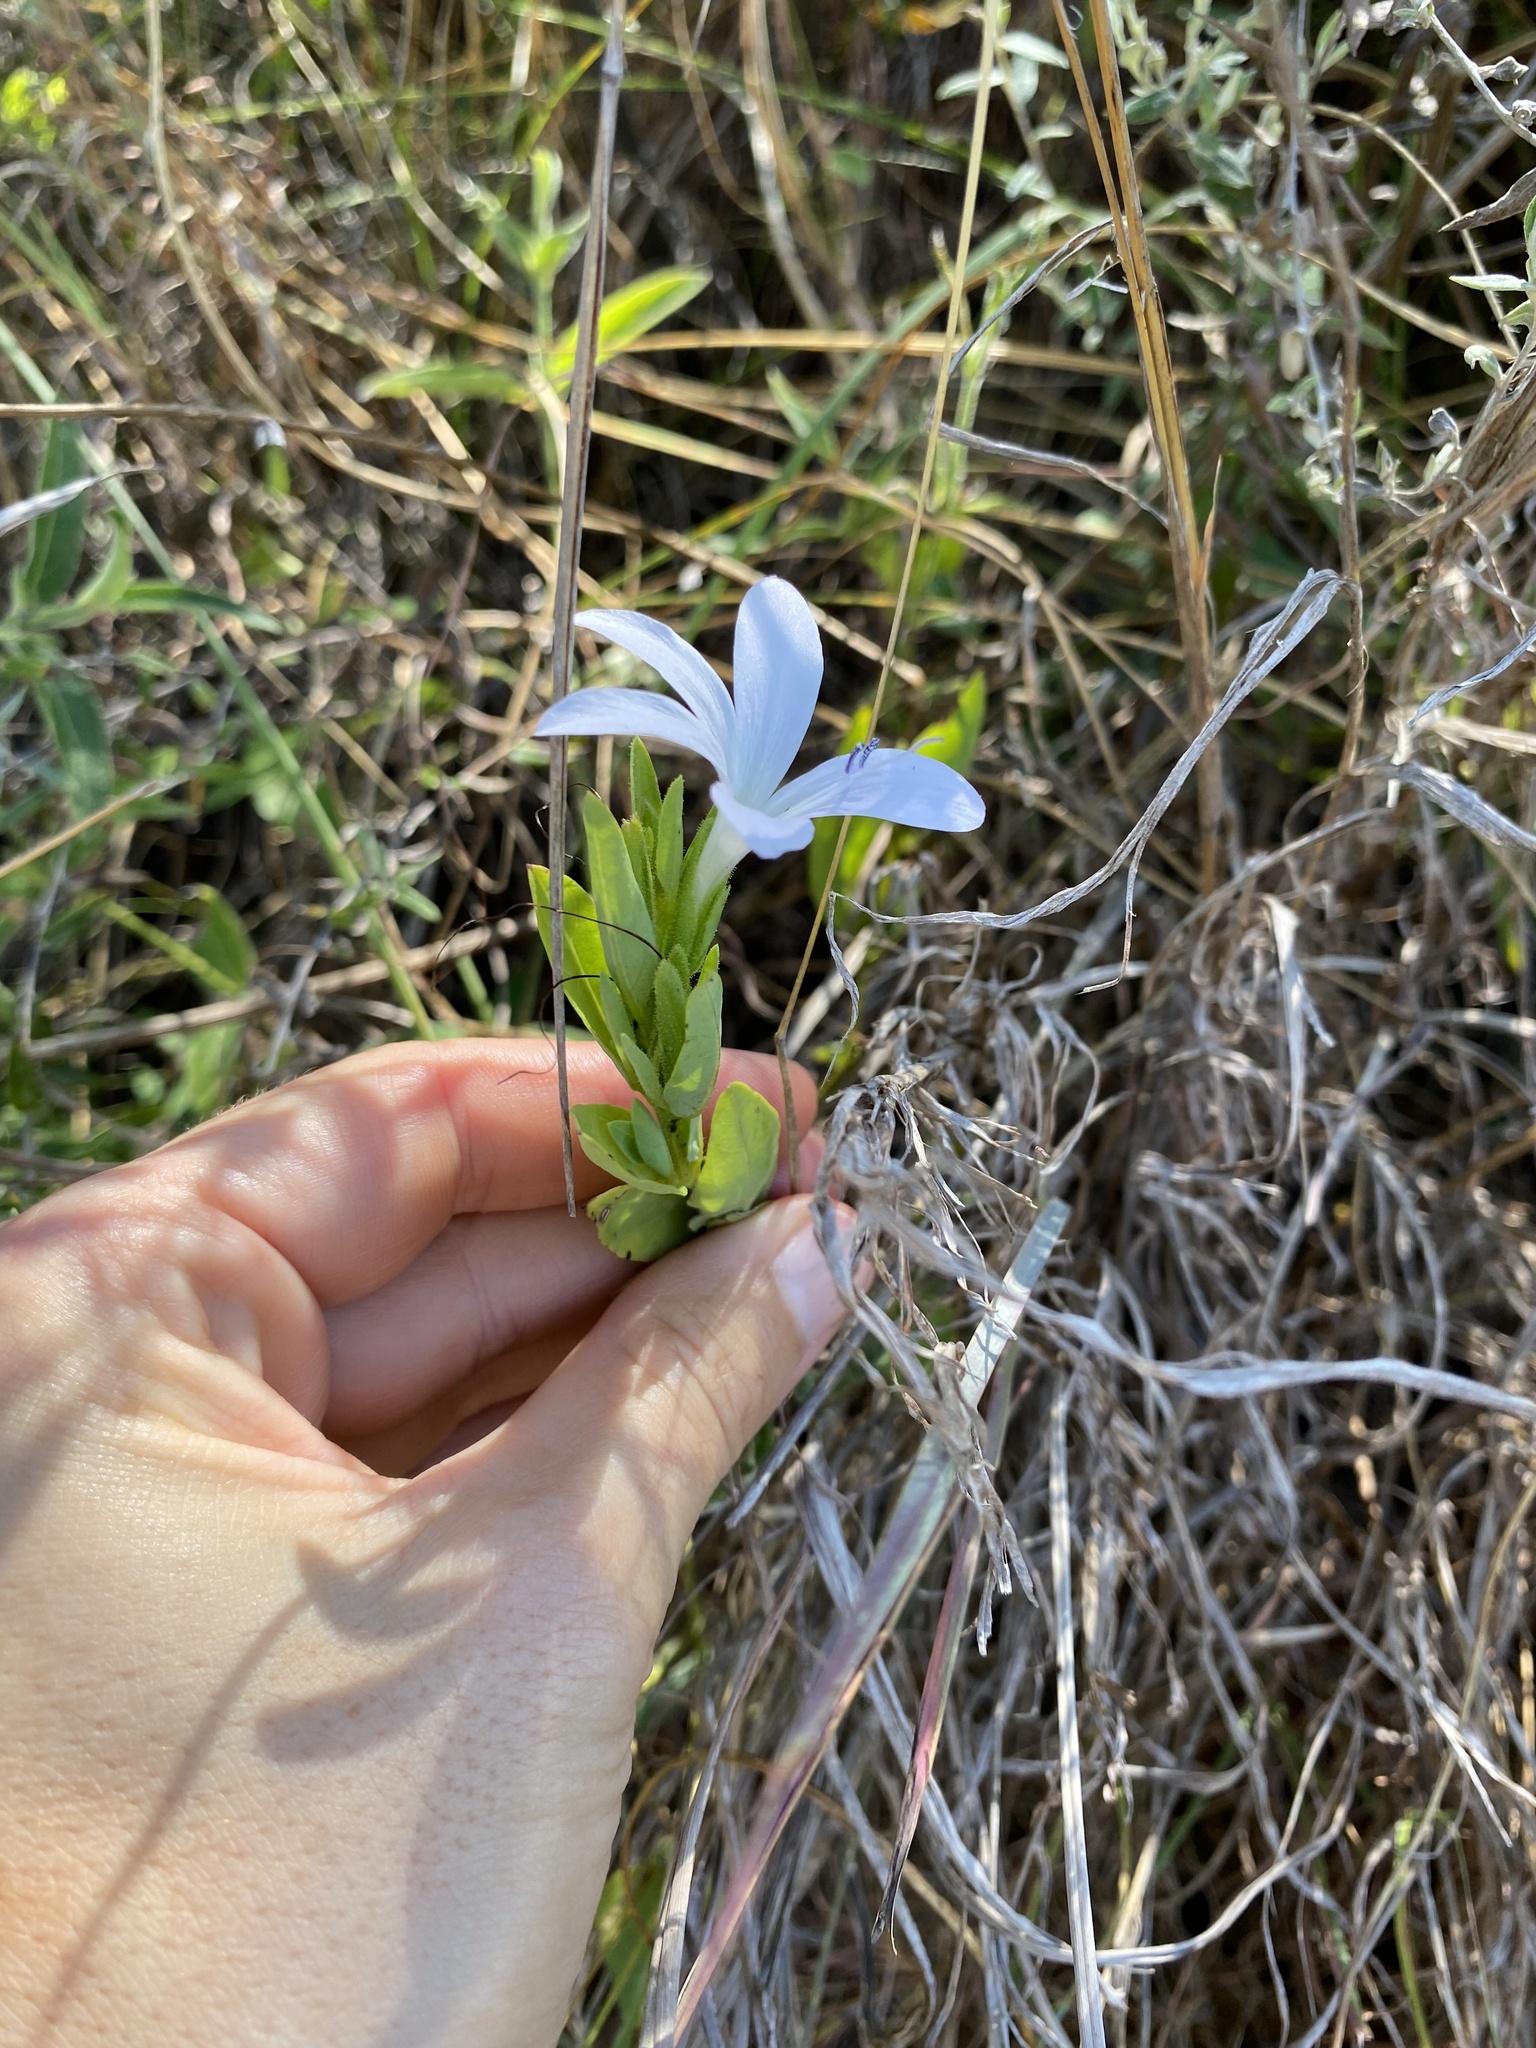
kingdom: Plantae
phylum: Tracheophyta
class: Magnoliopsida
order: Lamiales
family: Acanthaceae
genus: Barleria
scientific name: Barleria meyeriana
